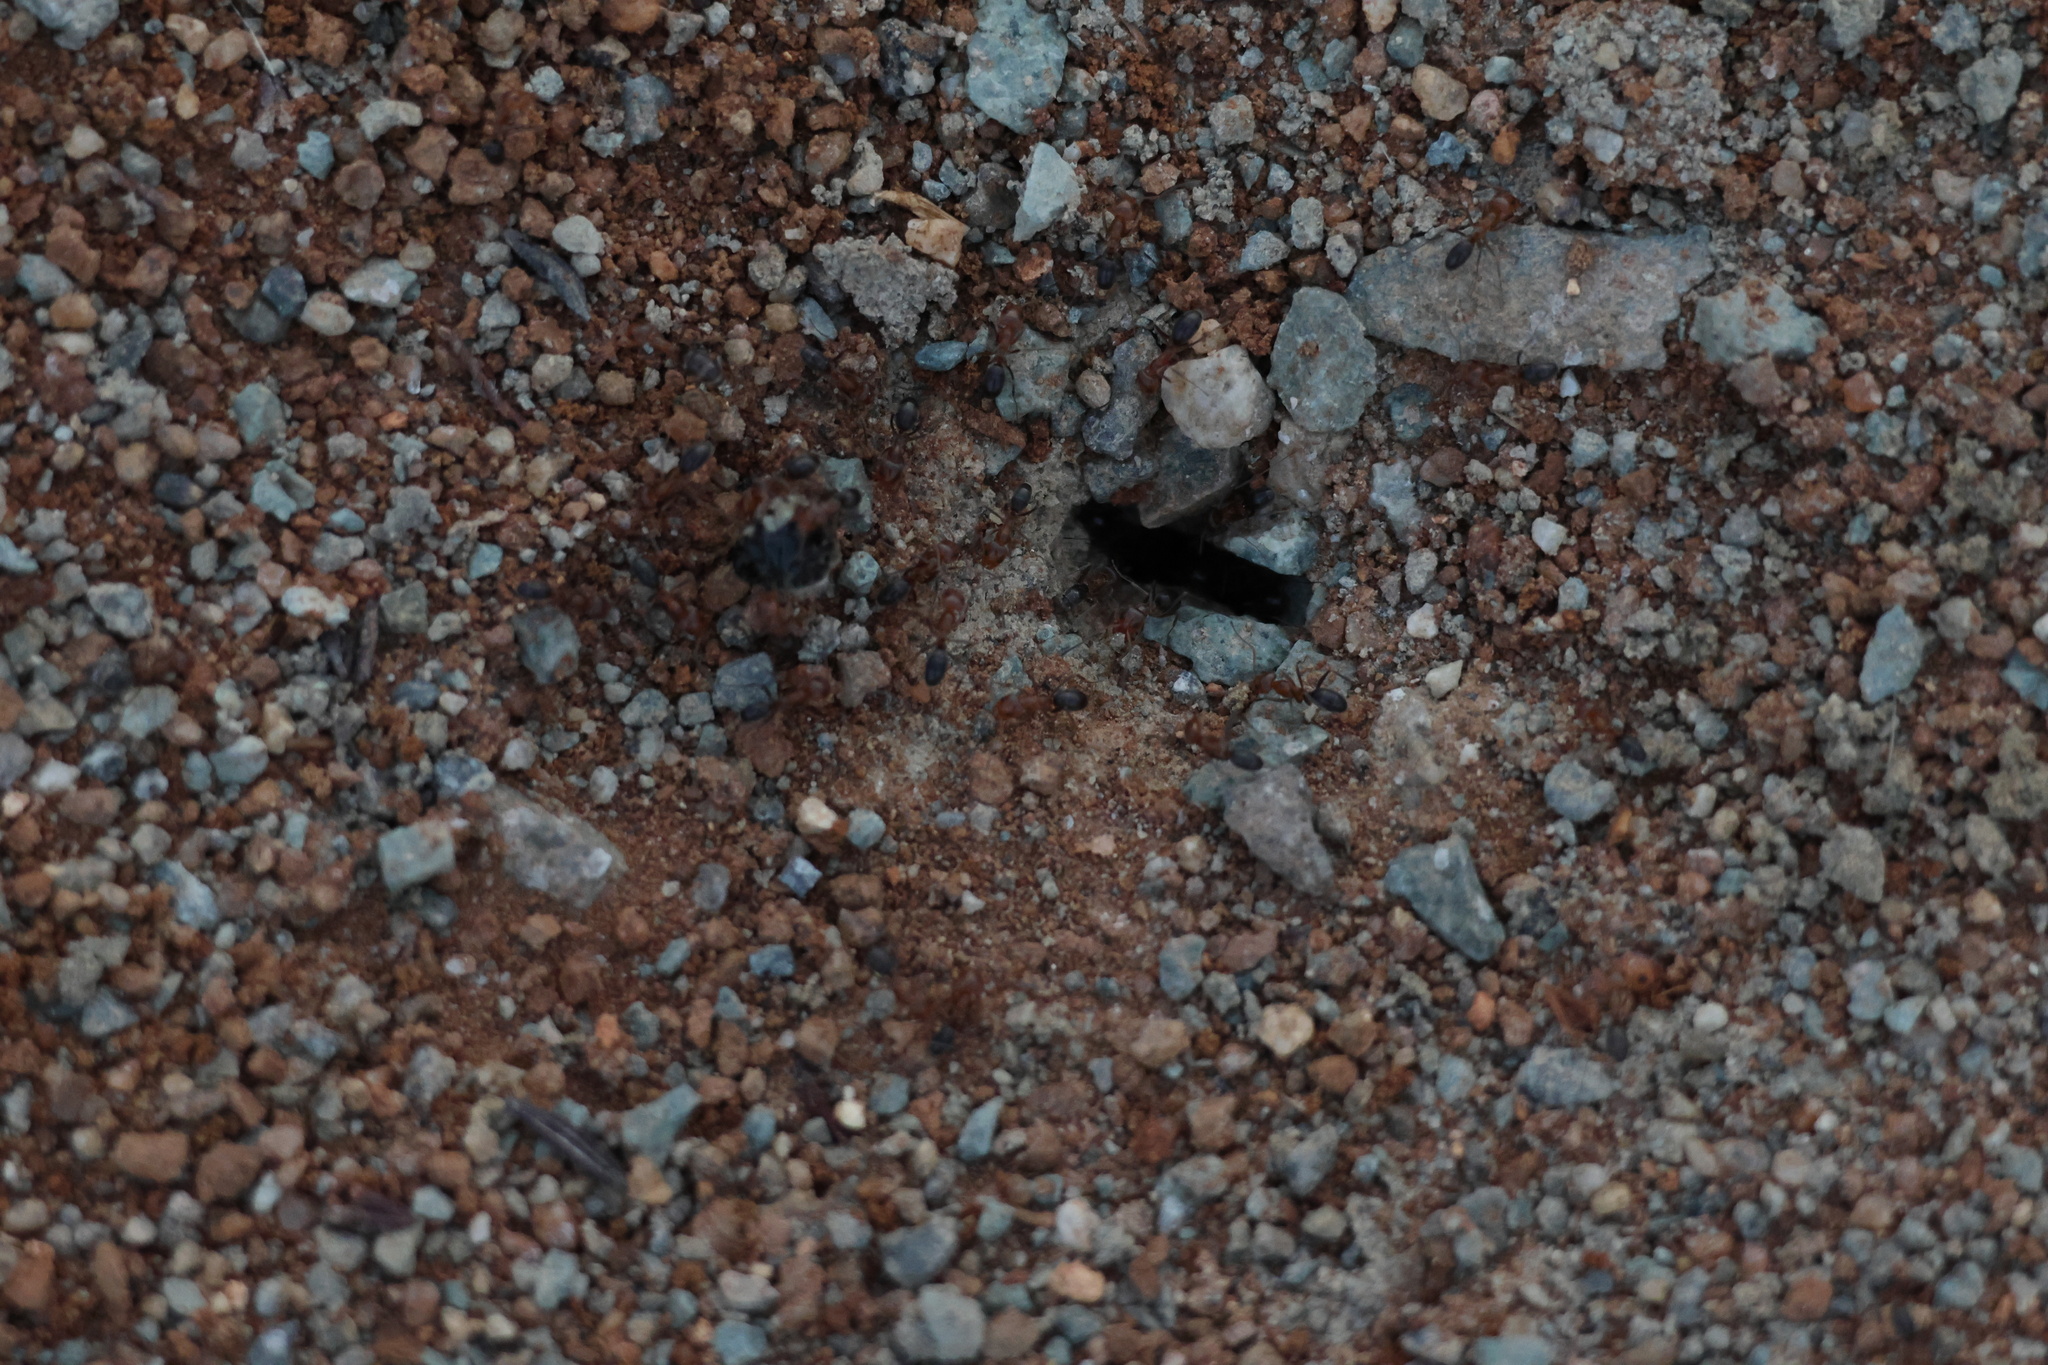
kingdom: Animalia
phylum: Arthropoda
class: Insecta
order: Hymenoptera
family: Formicidae
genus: Dorymyrmex
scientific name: Dorymyrmex bicolor
